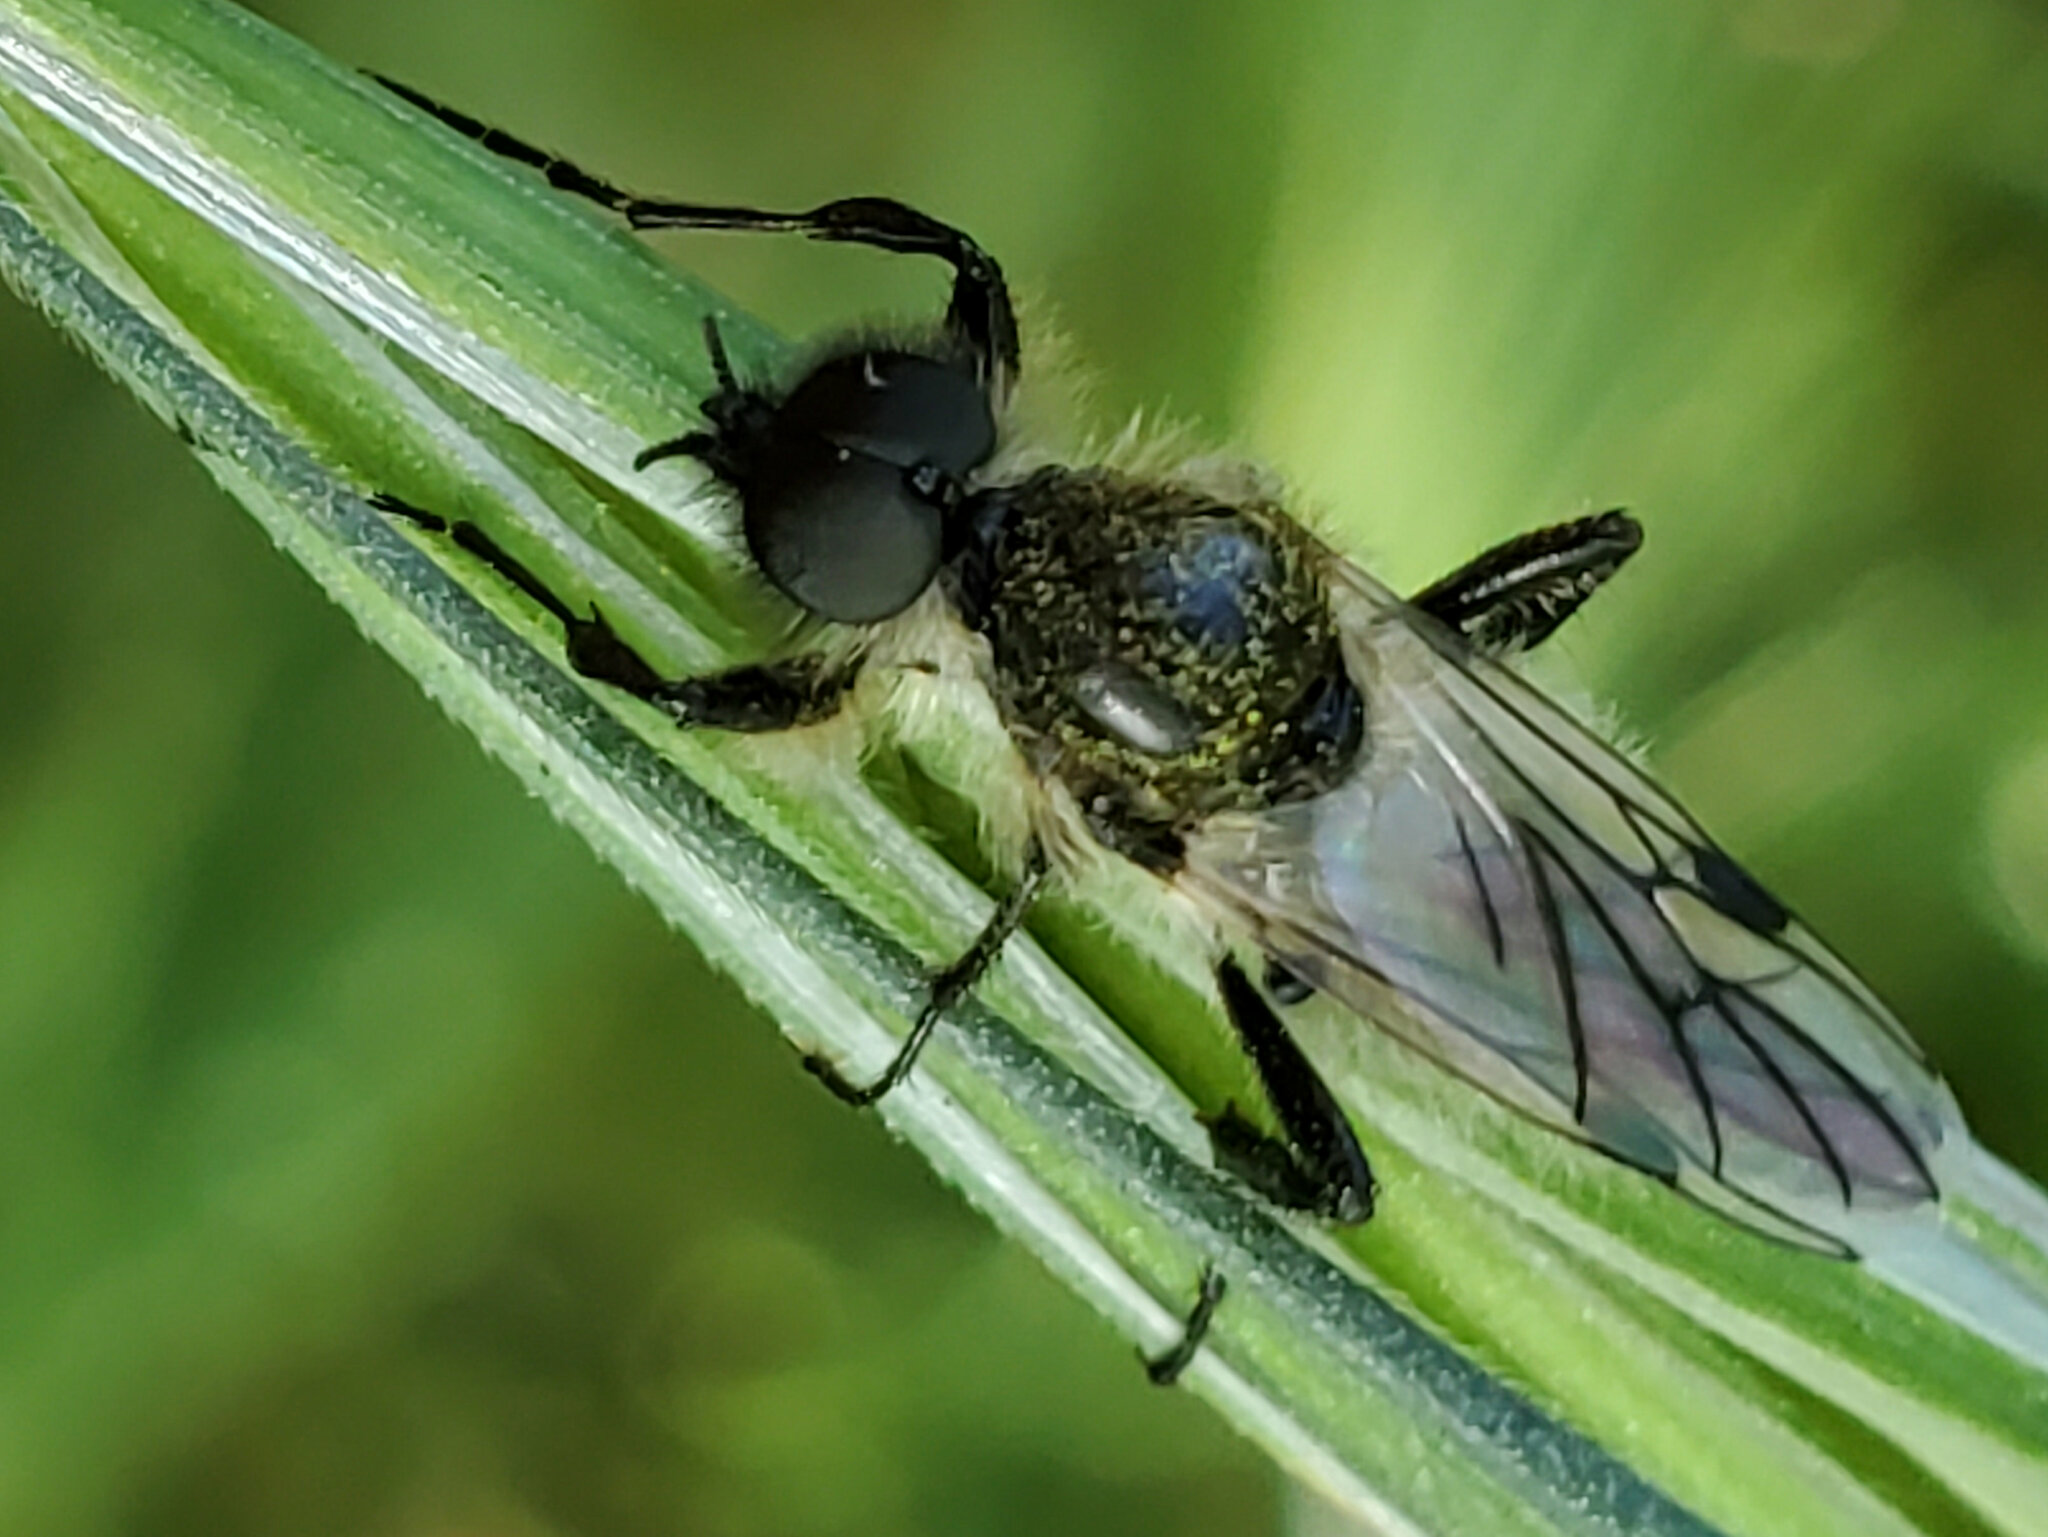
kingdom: Animalia
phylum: Arthropoda
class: Insecta
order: Diptera
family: Bibionidae
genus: Bibio
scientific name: Bibio albipennis
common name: White-winged march fly
